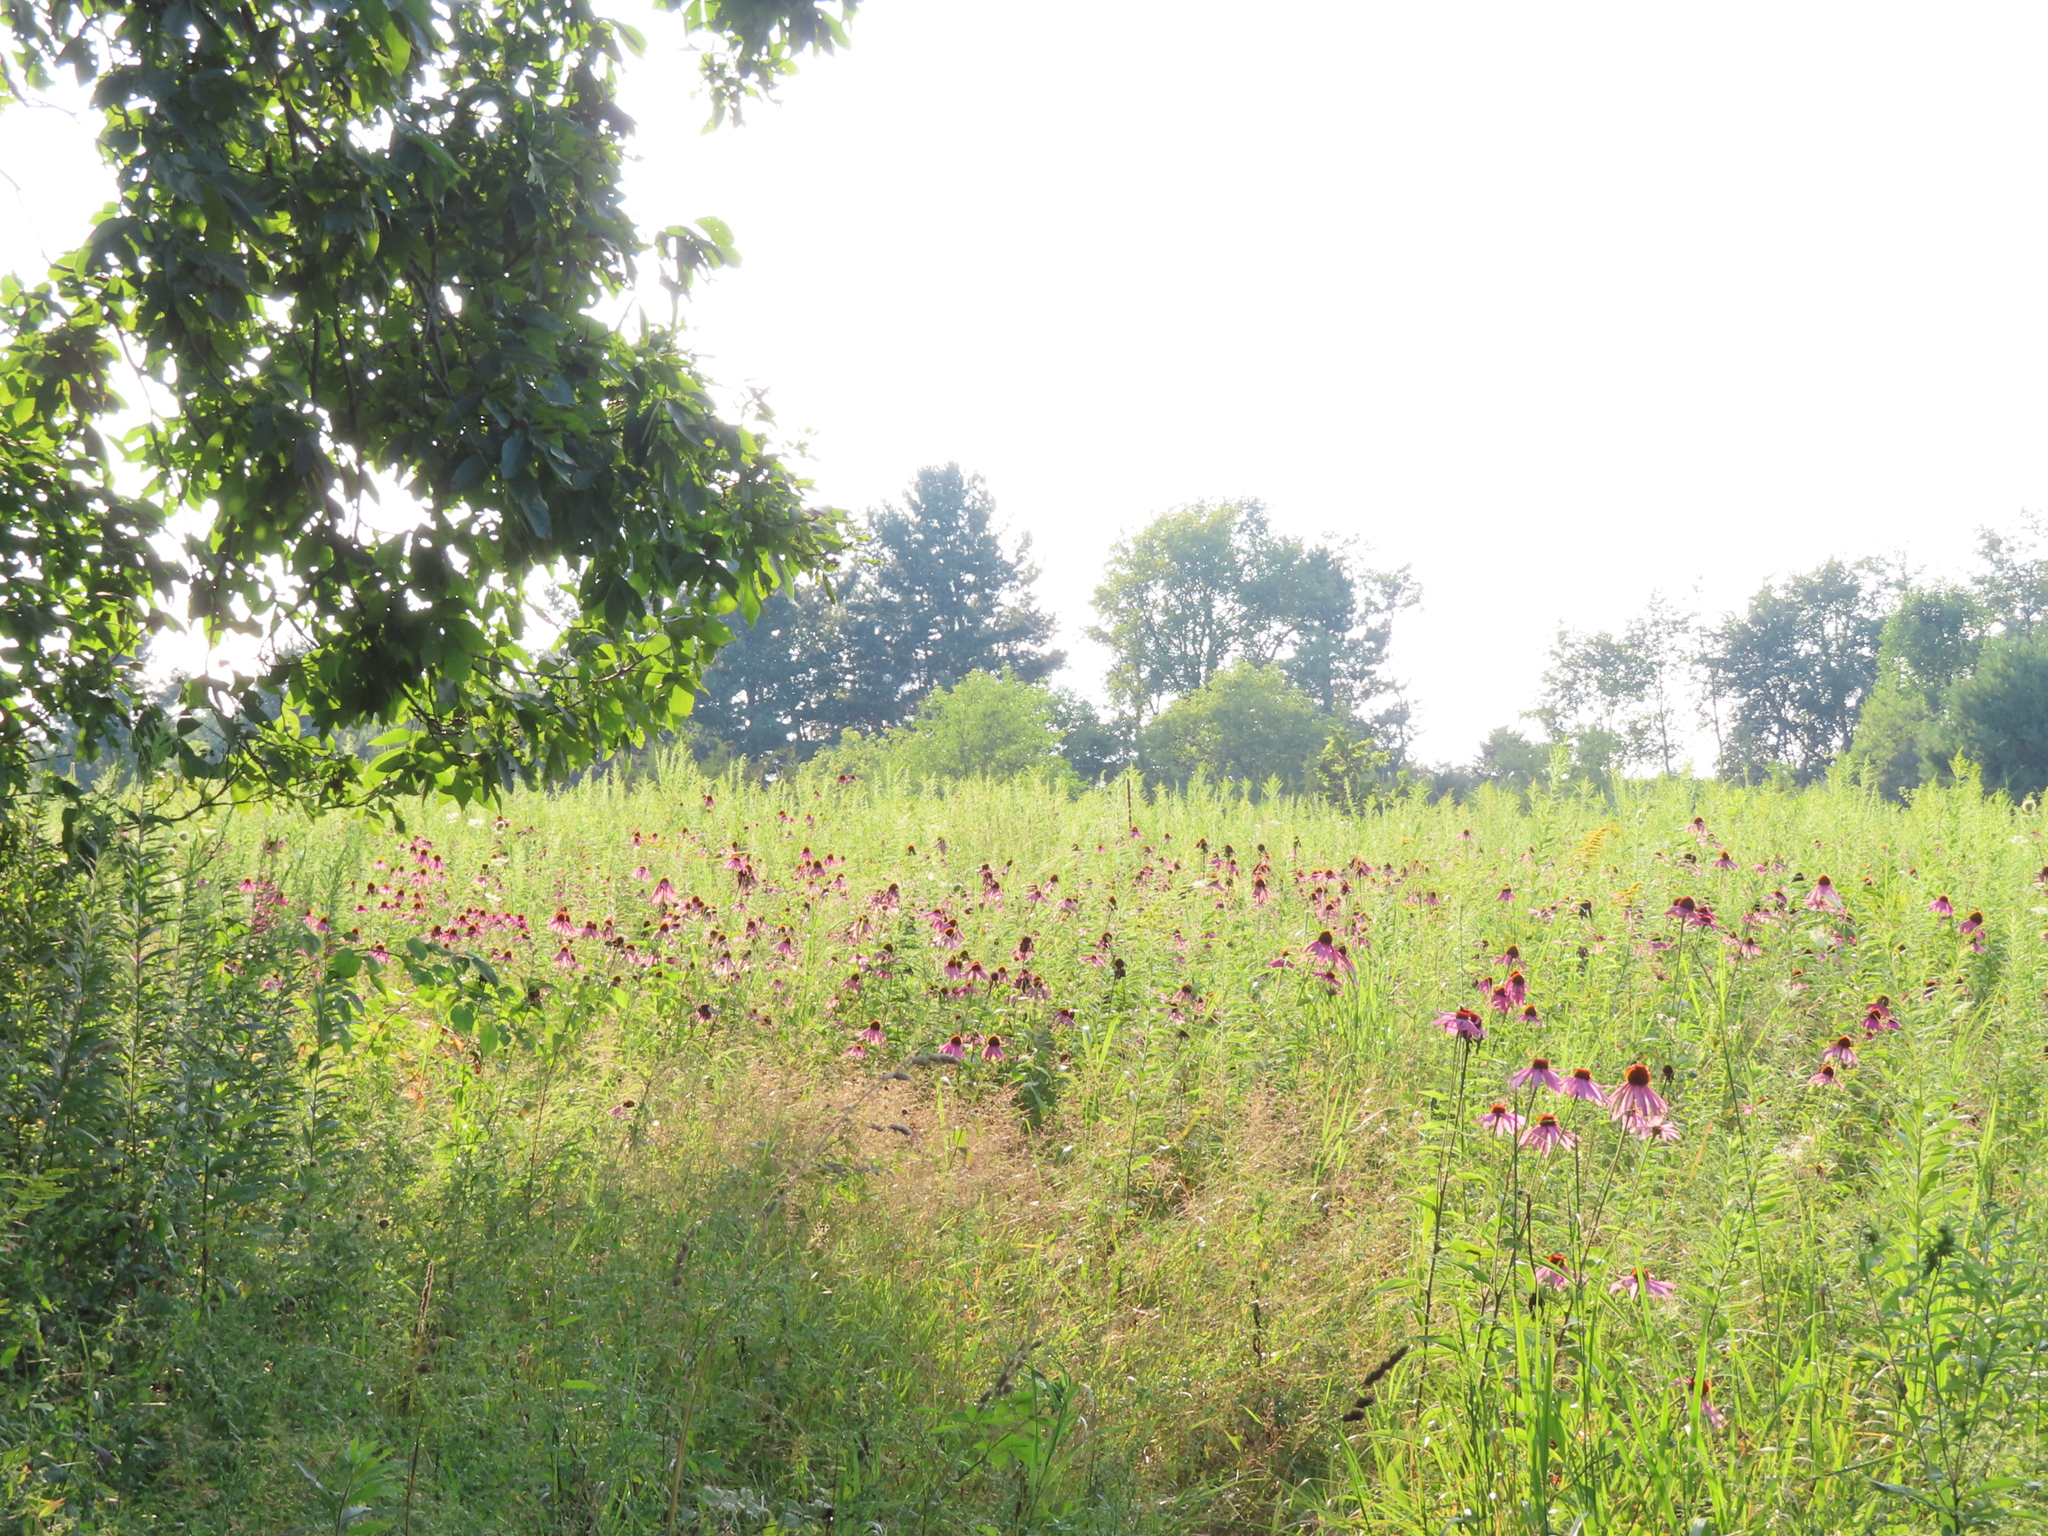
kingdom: Plantae
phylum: Tracheophyta
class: Magnoliopsida
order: Asterales
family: Asteraceae
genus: Echinacea
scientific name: Echinacea purpurea
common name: Broad-leaved purple coneflower
